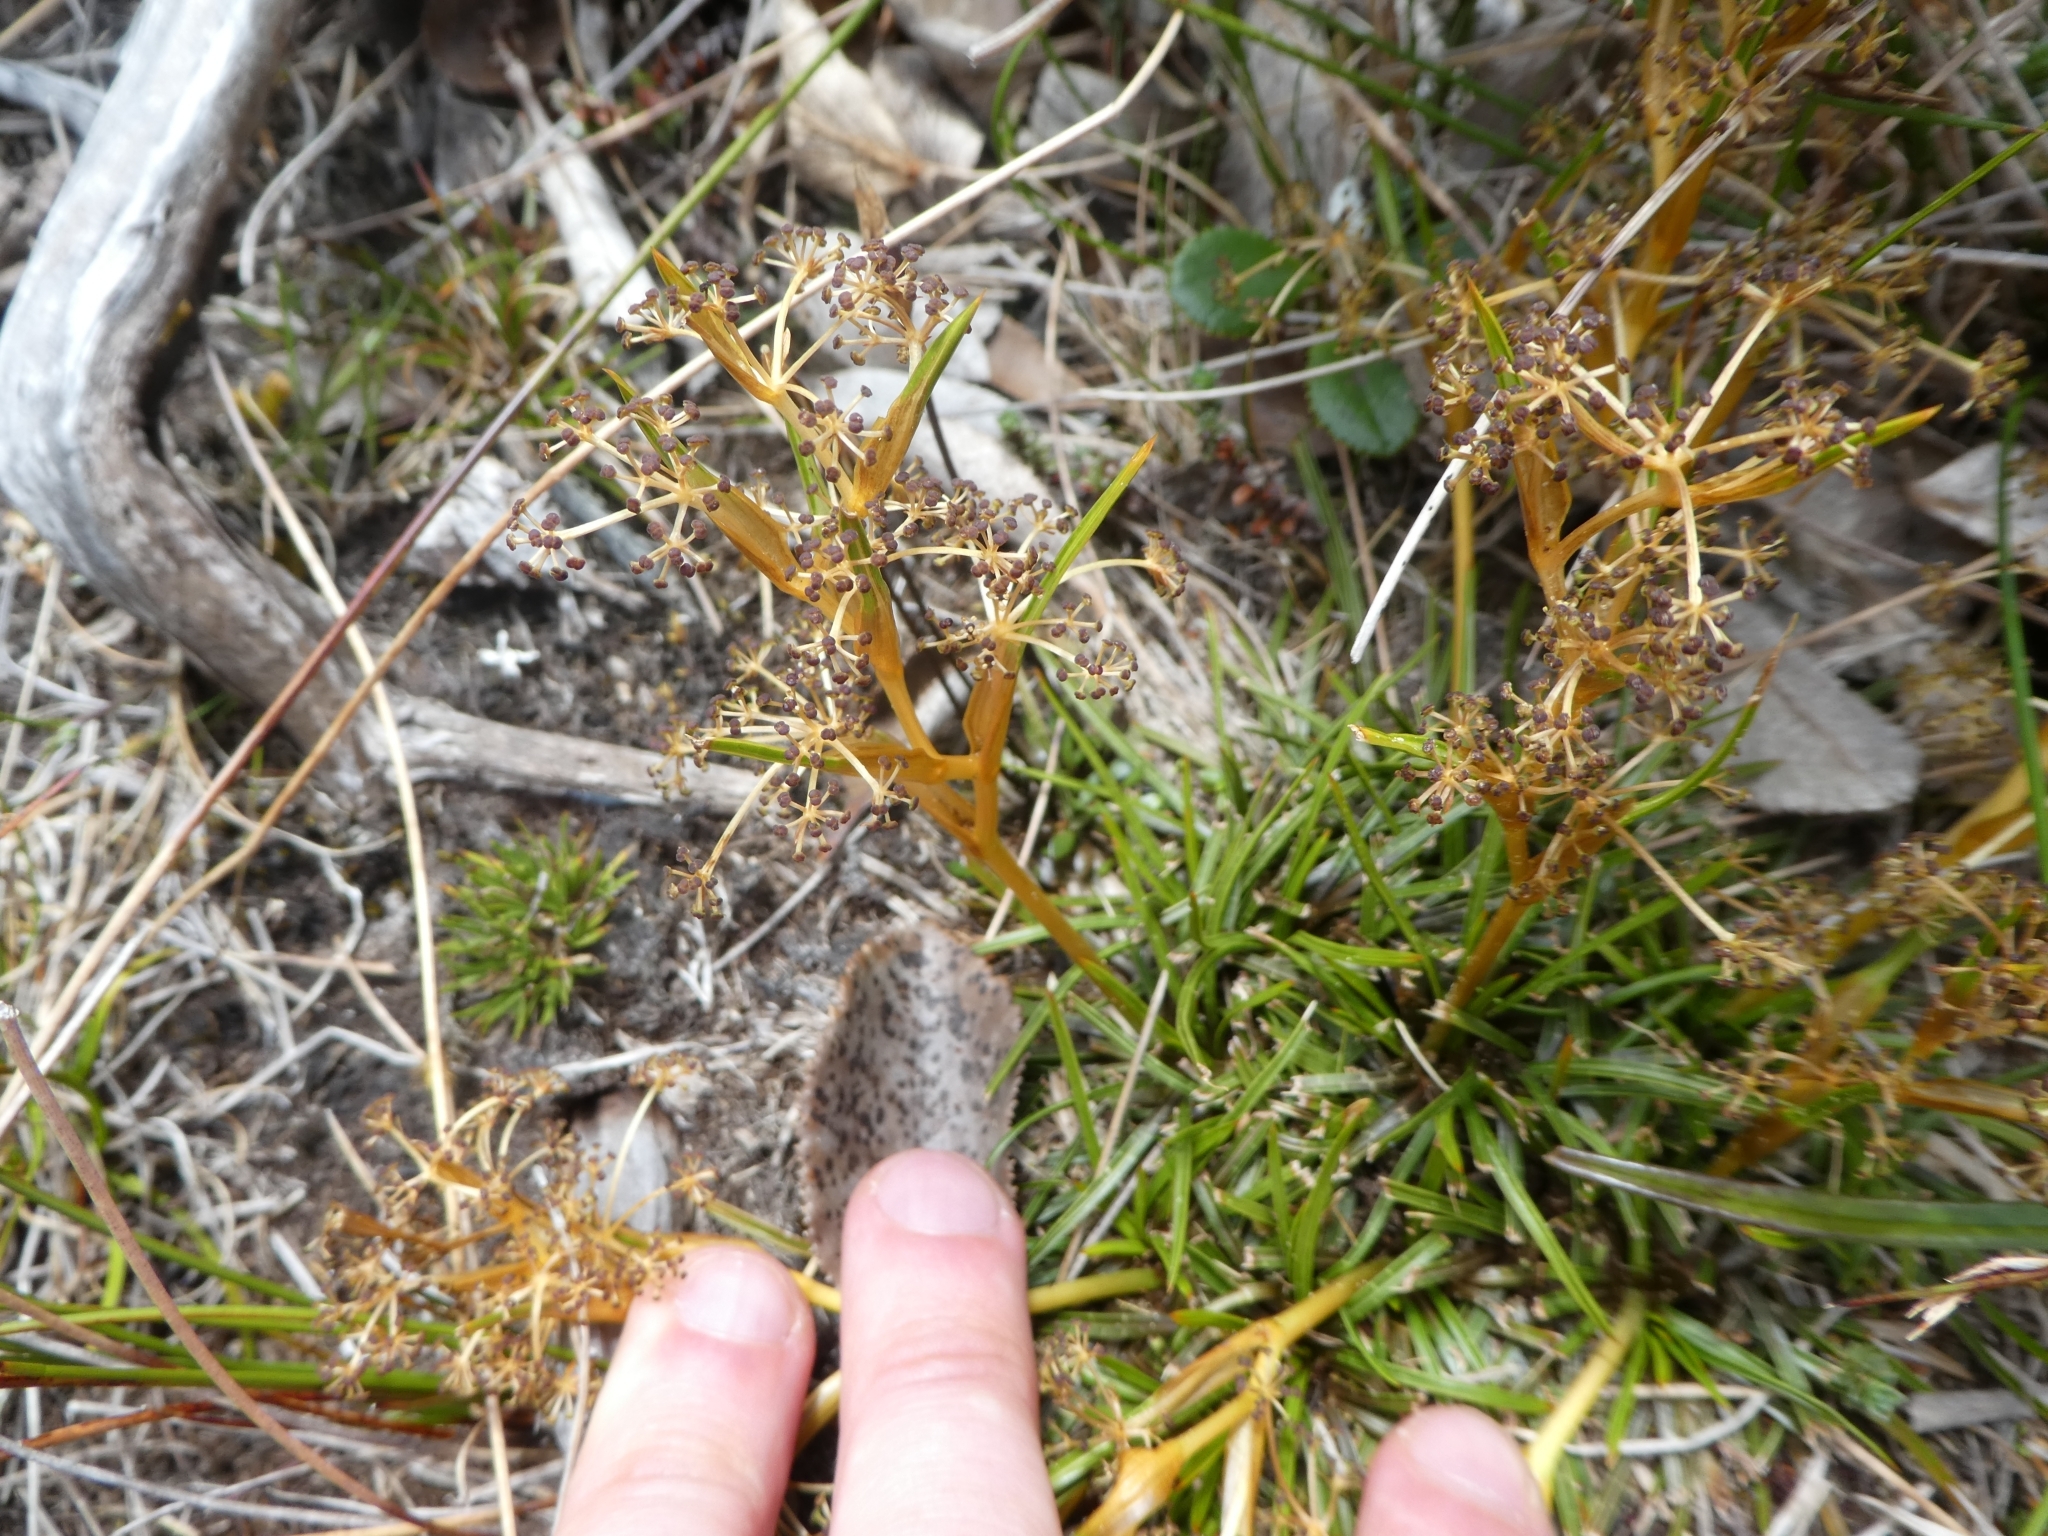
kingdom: Plantae
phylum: Tracheophyta
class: Magnoliopsida
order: Apiales
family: Apiaceae
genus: Aciphylla
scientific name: Aciphylla traillii
